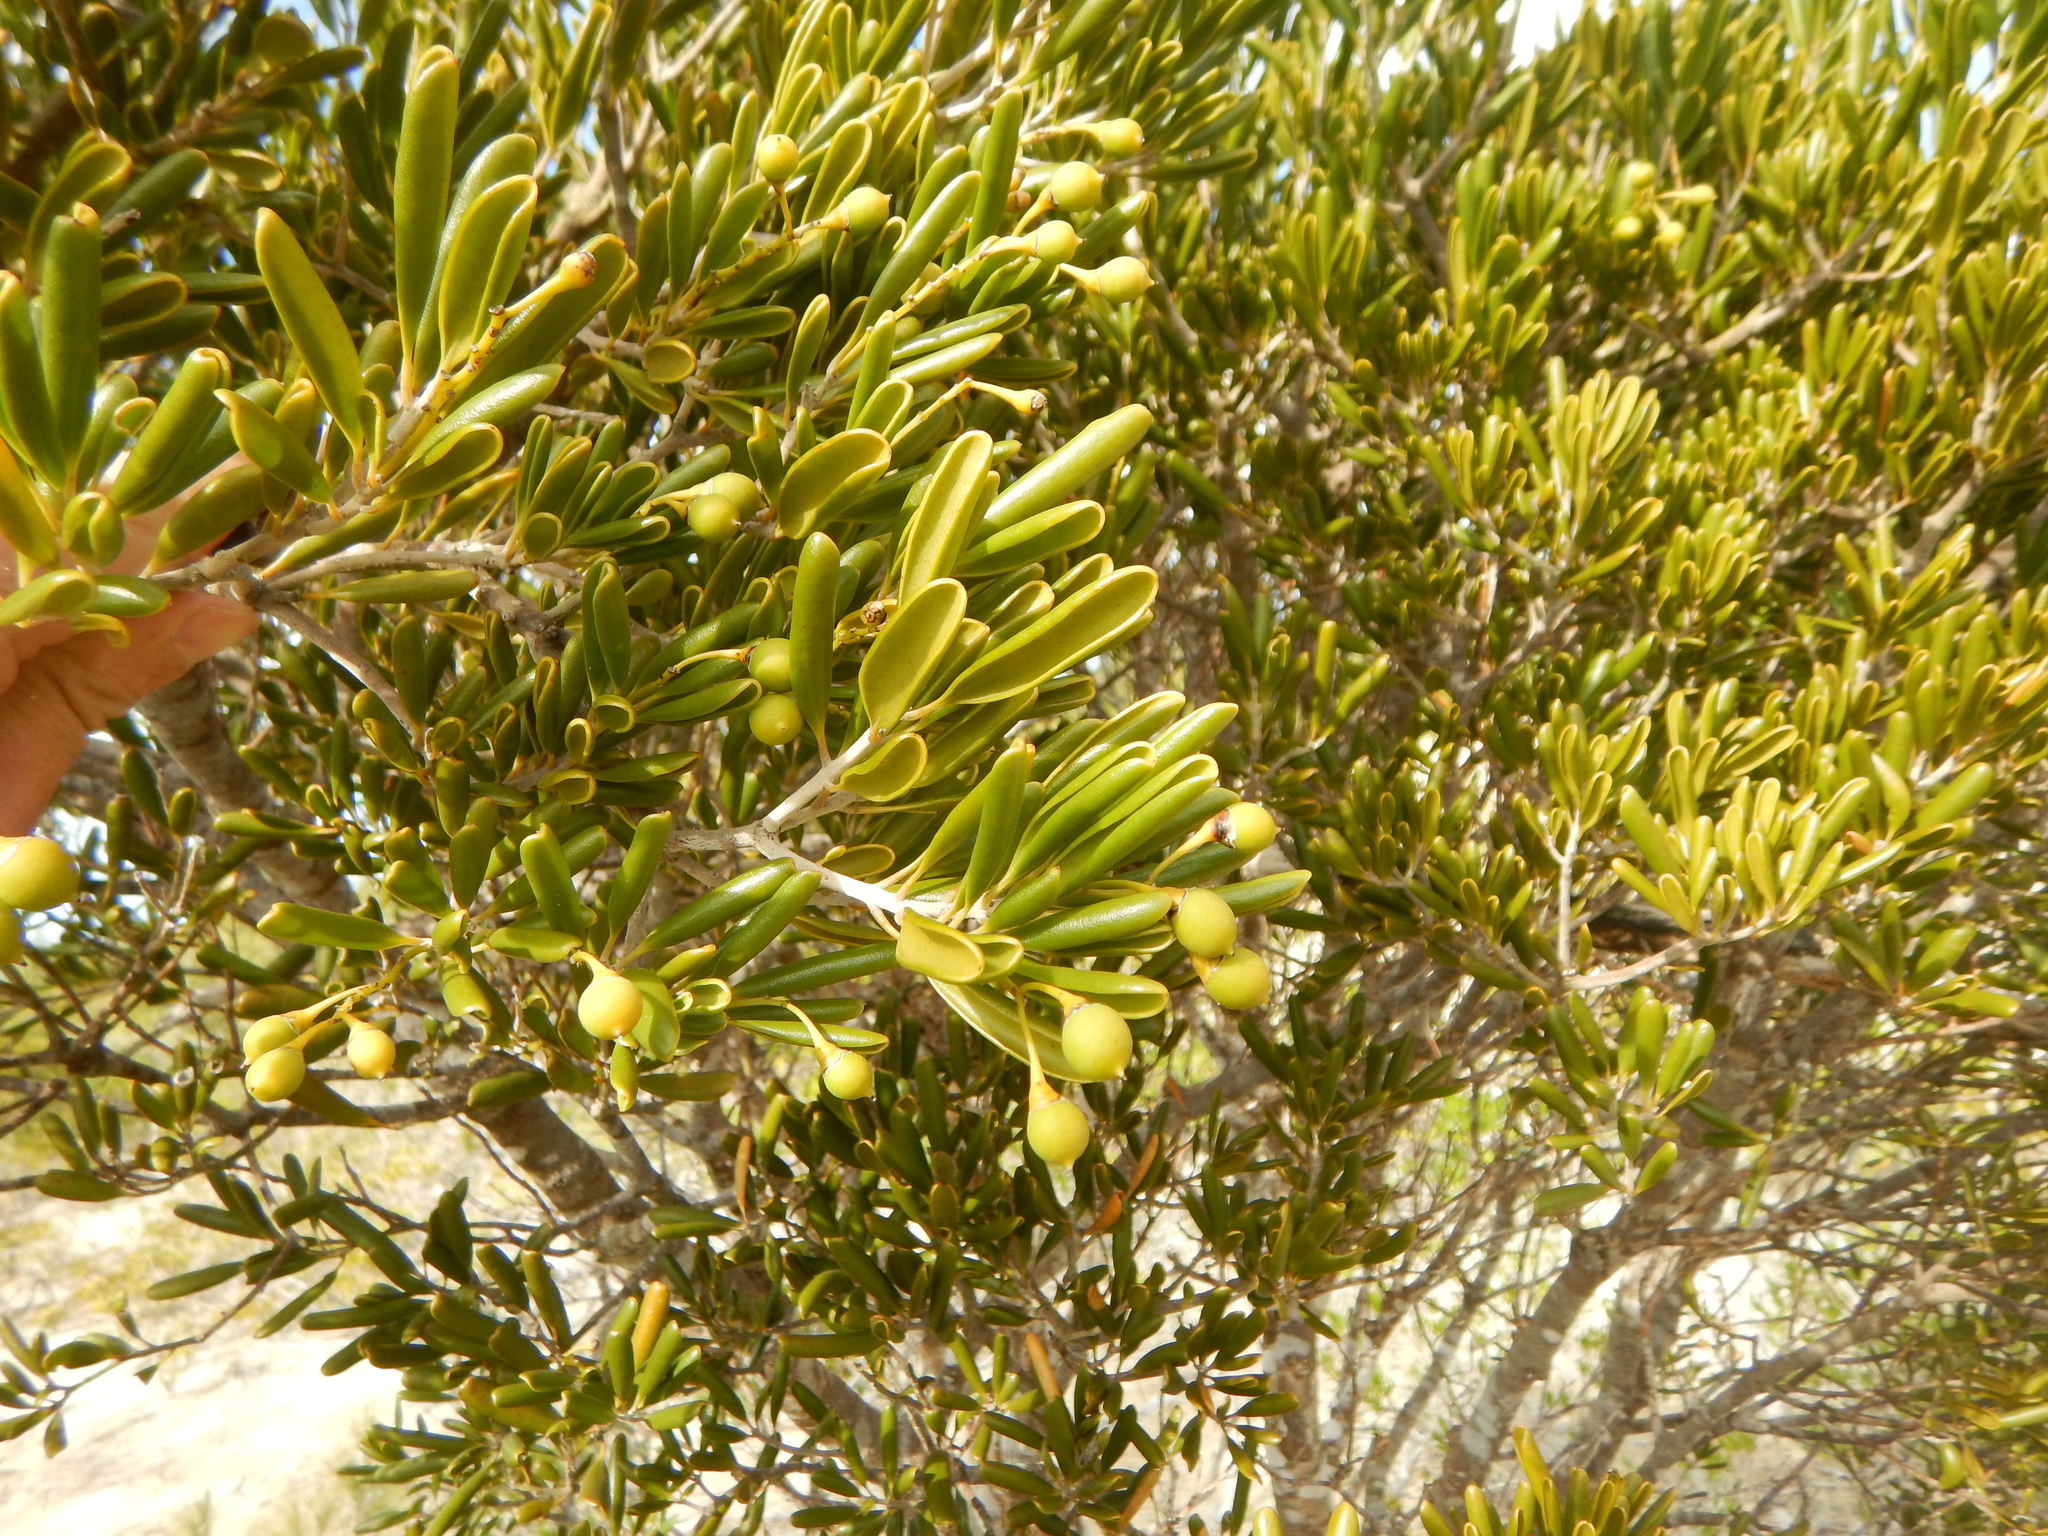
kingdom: Plantae
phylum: Tracheophyta
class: Magnoliopsida
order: Ericales
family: Primulaceae
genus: Jacquinia
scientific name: Jacquinia keyensis
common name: Joebush
